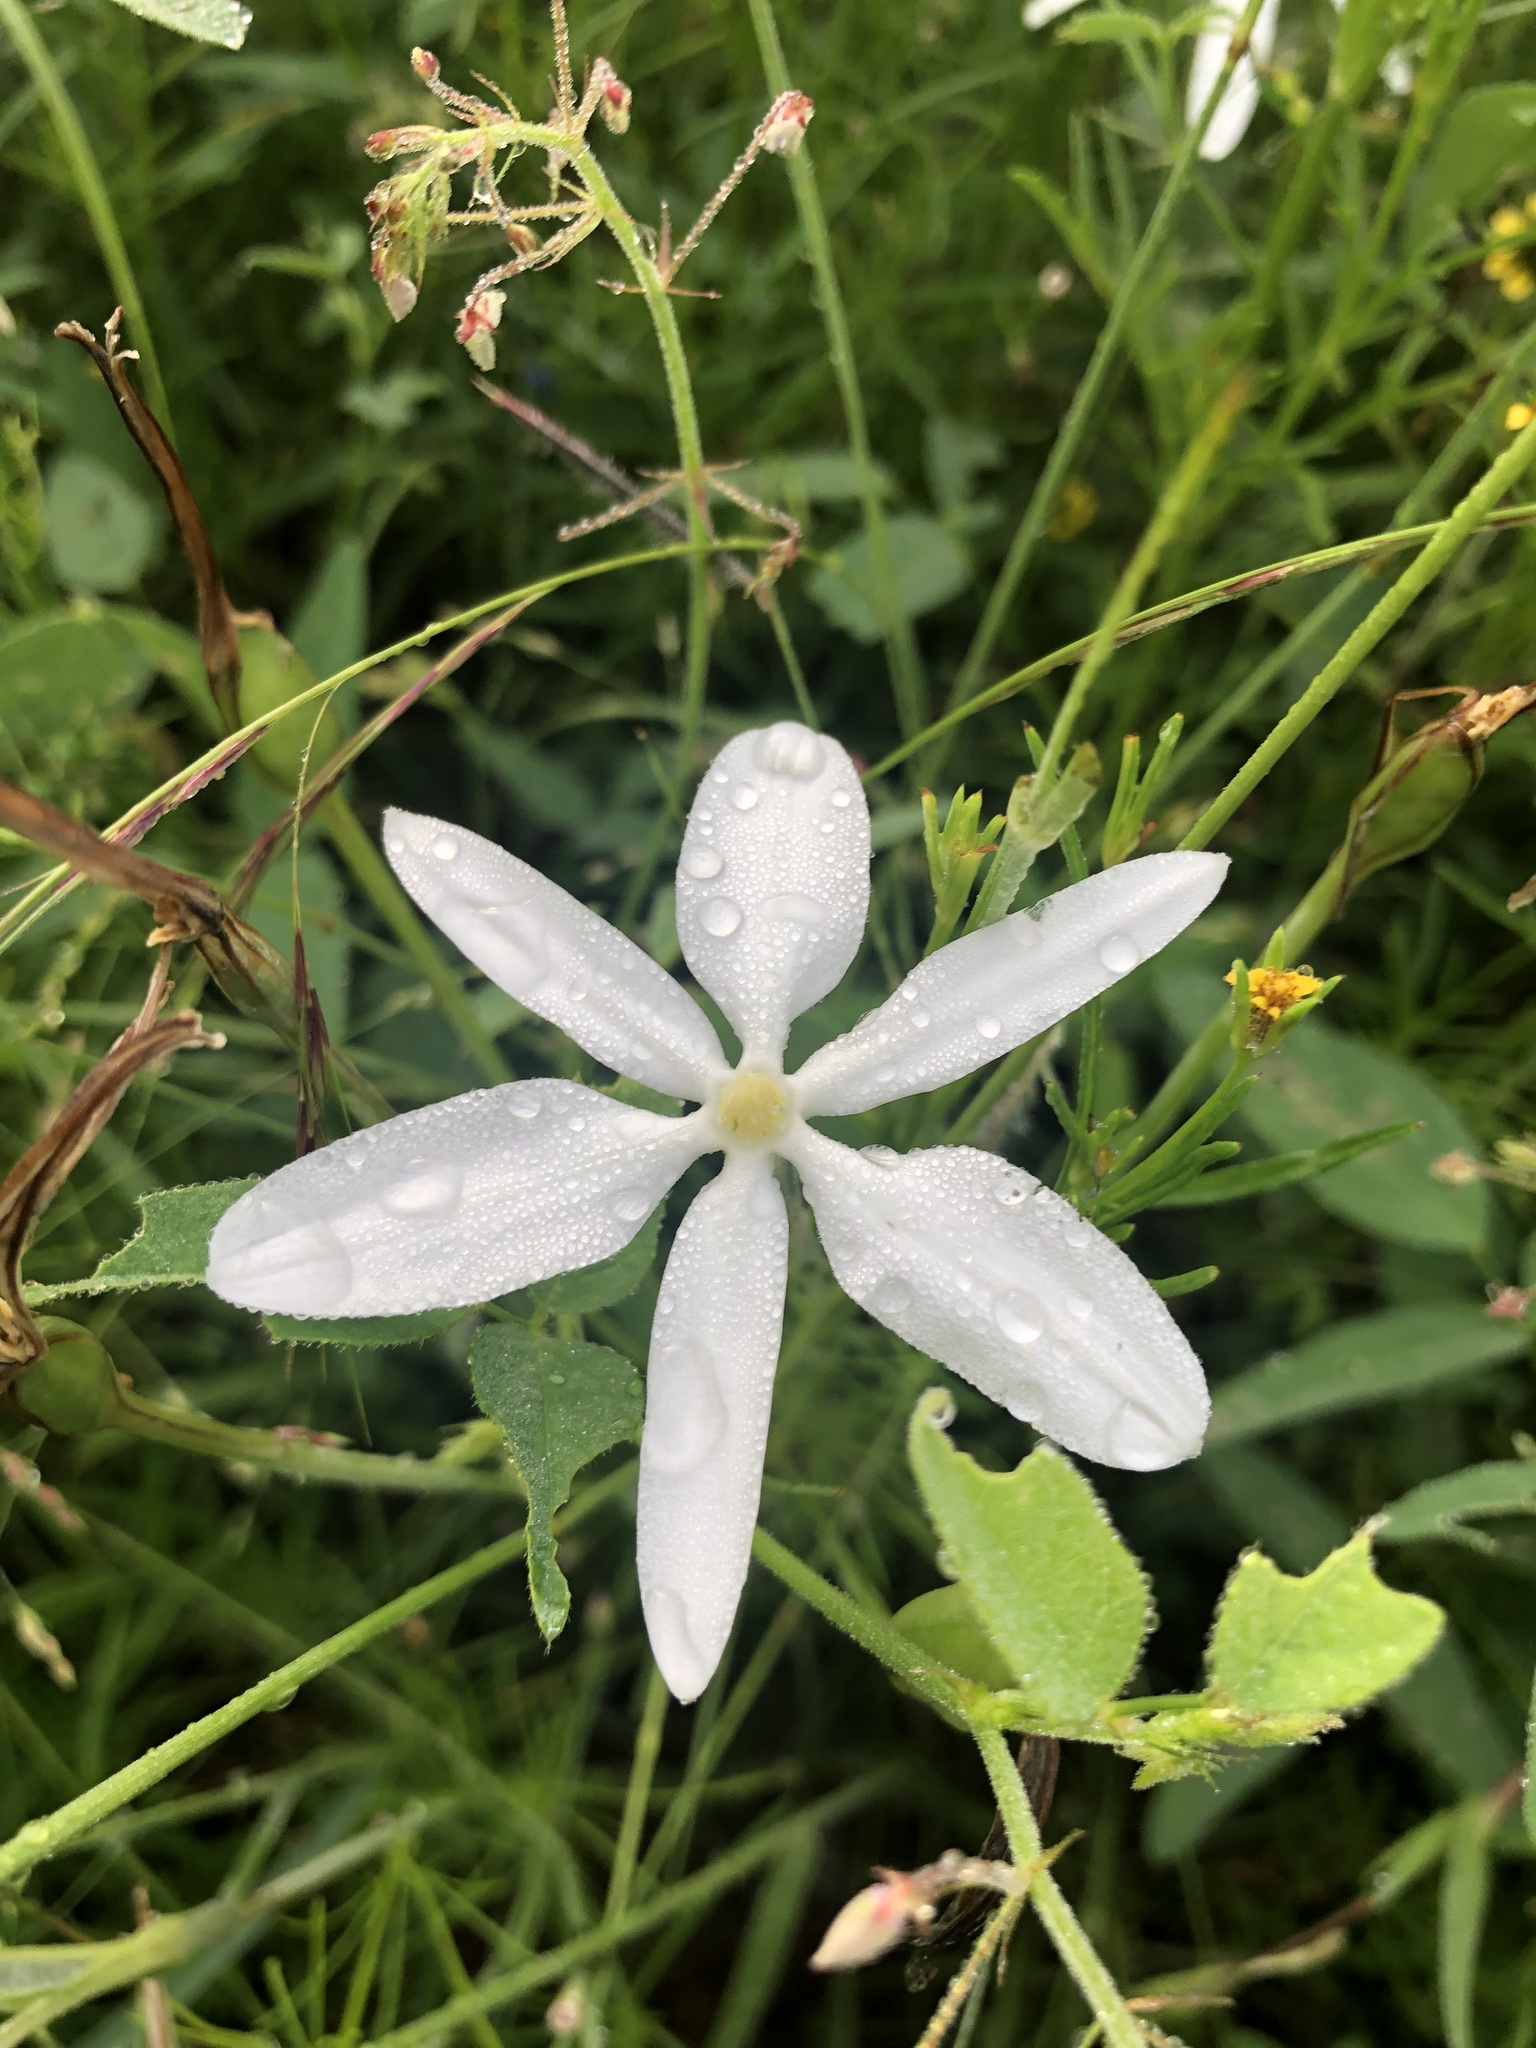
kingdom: Plantae
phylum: Tracheophyta
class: Liliopsida
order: Asparagales
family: Asparagaceae
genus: Milla
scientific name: Milla biflora
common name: Mexican-star
